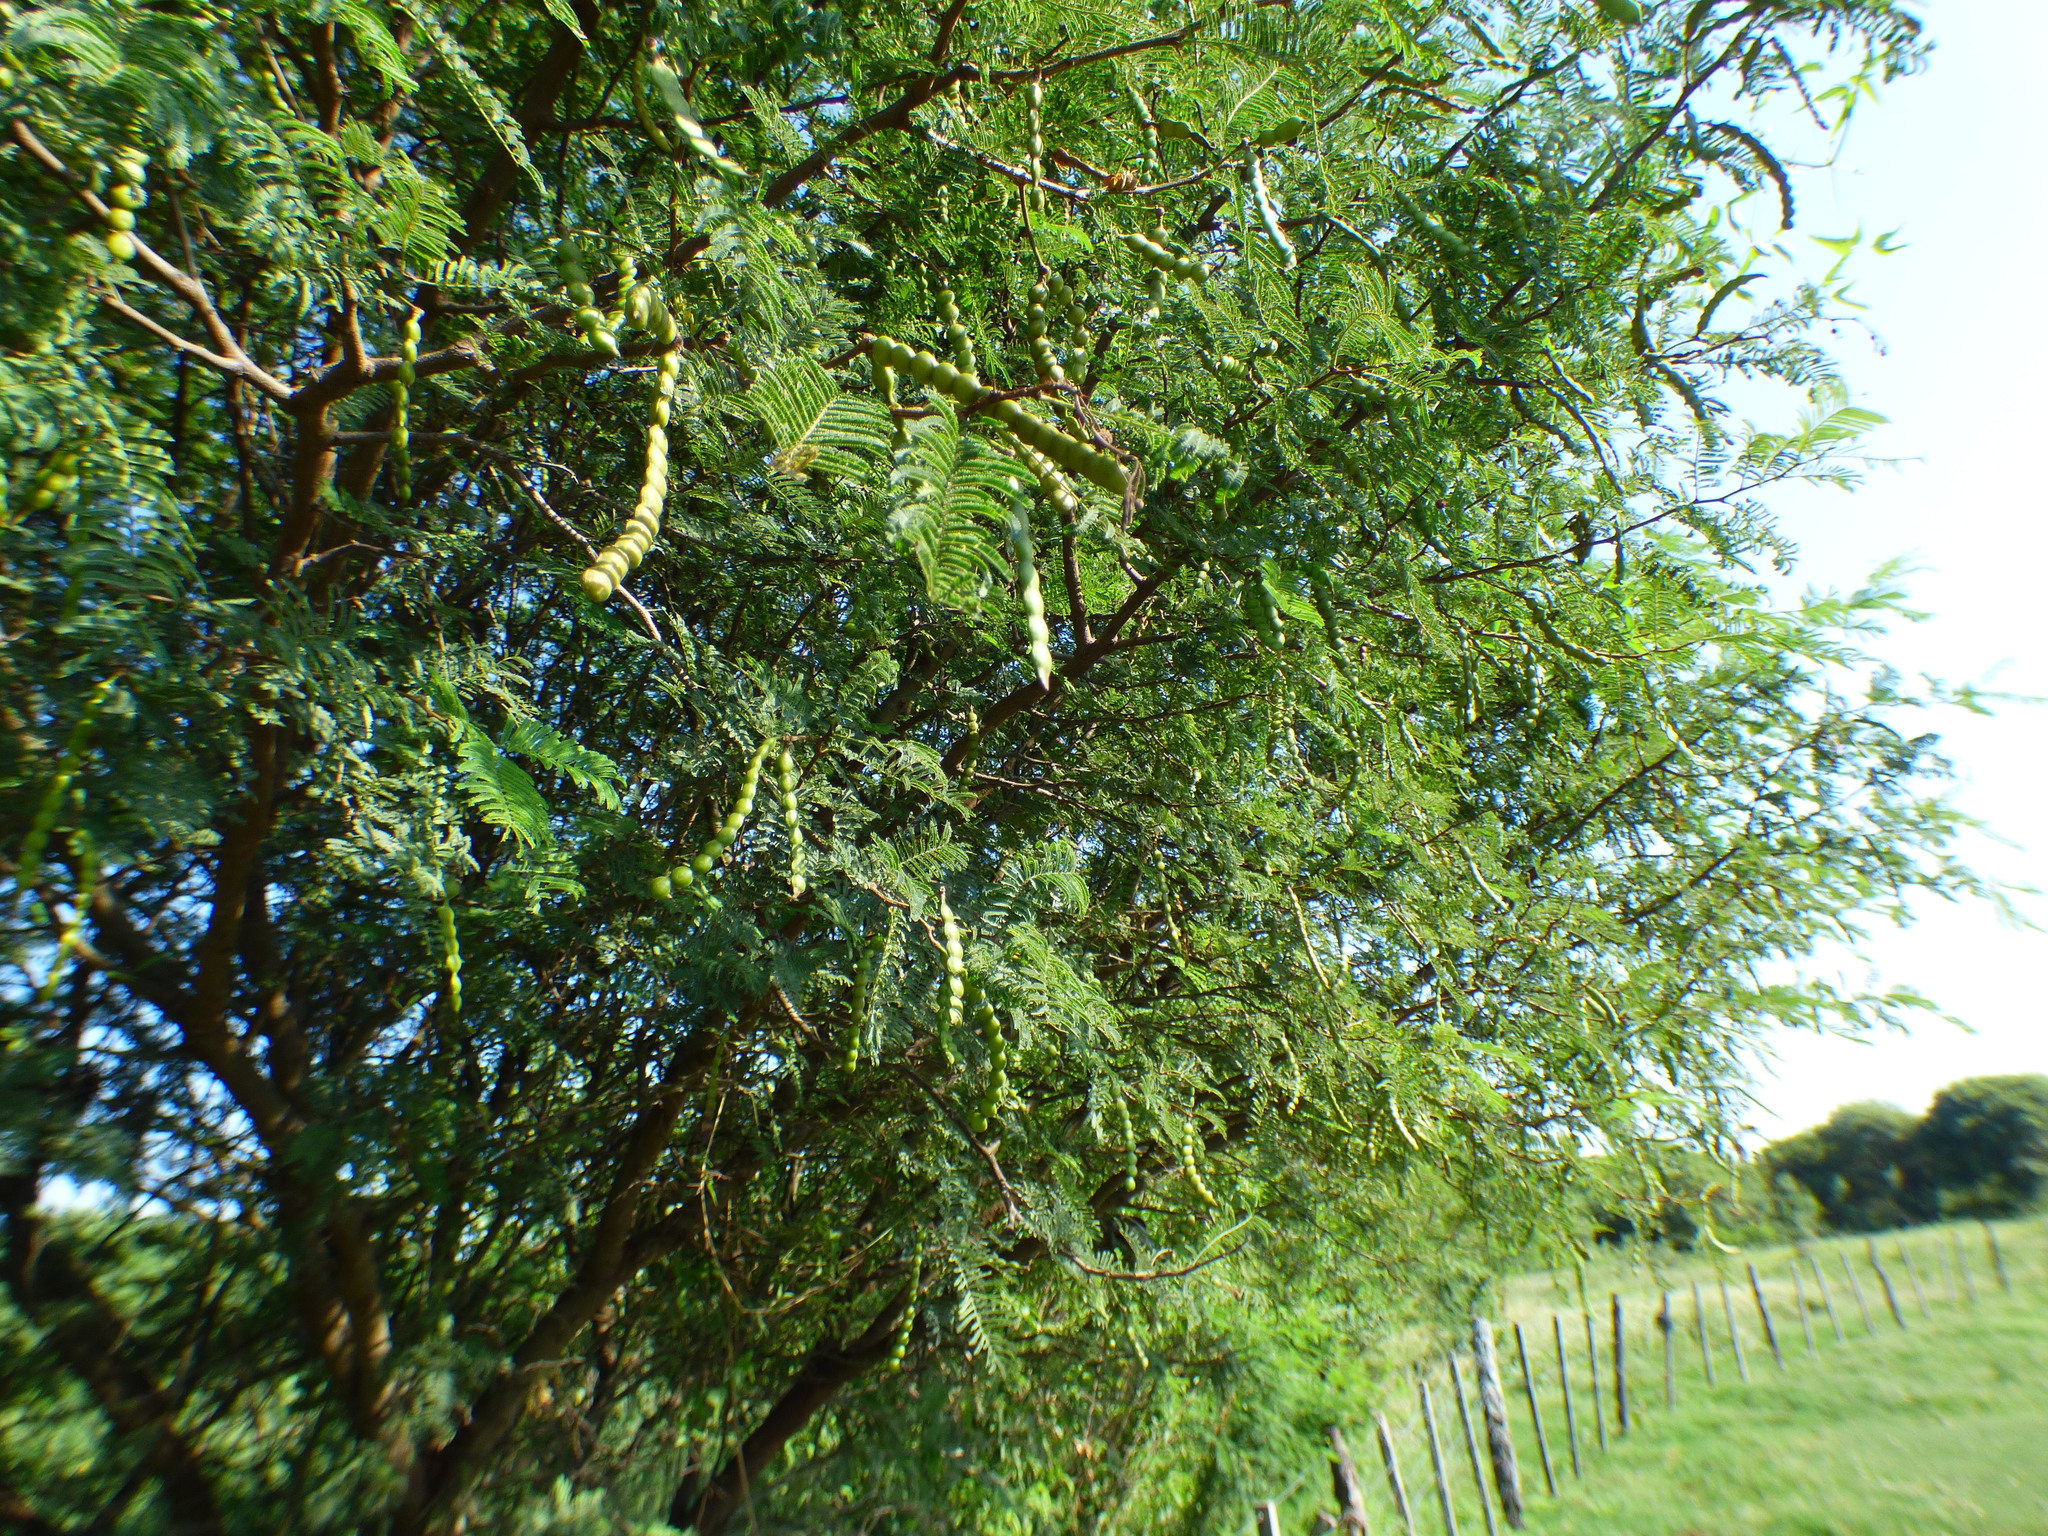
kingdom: Plantae
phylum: Tracheophyta
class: Magnoliopsida
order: Fabales
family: Fabaceae
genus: Vachellia
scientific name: Vachellia aroma
